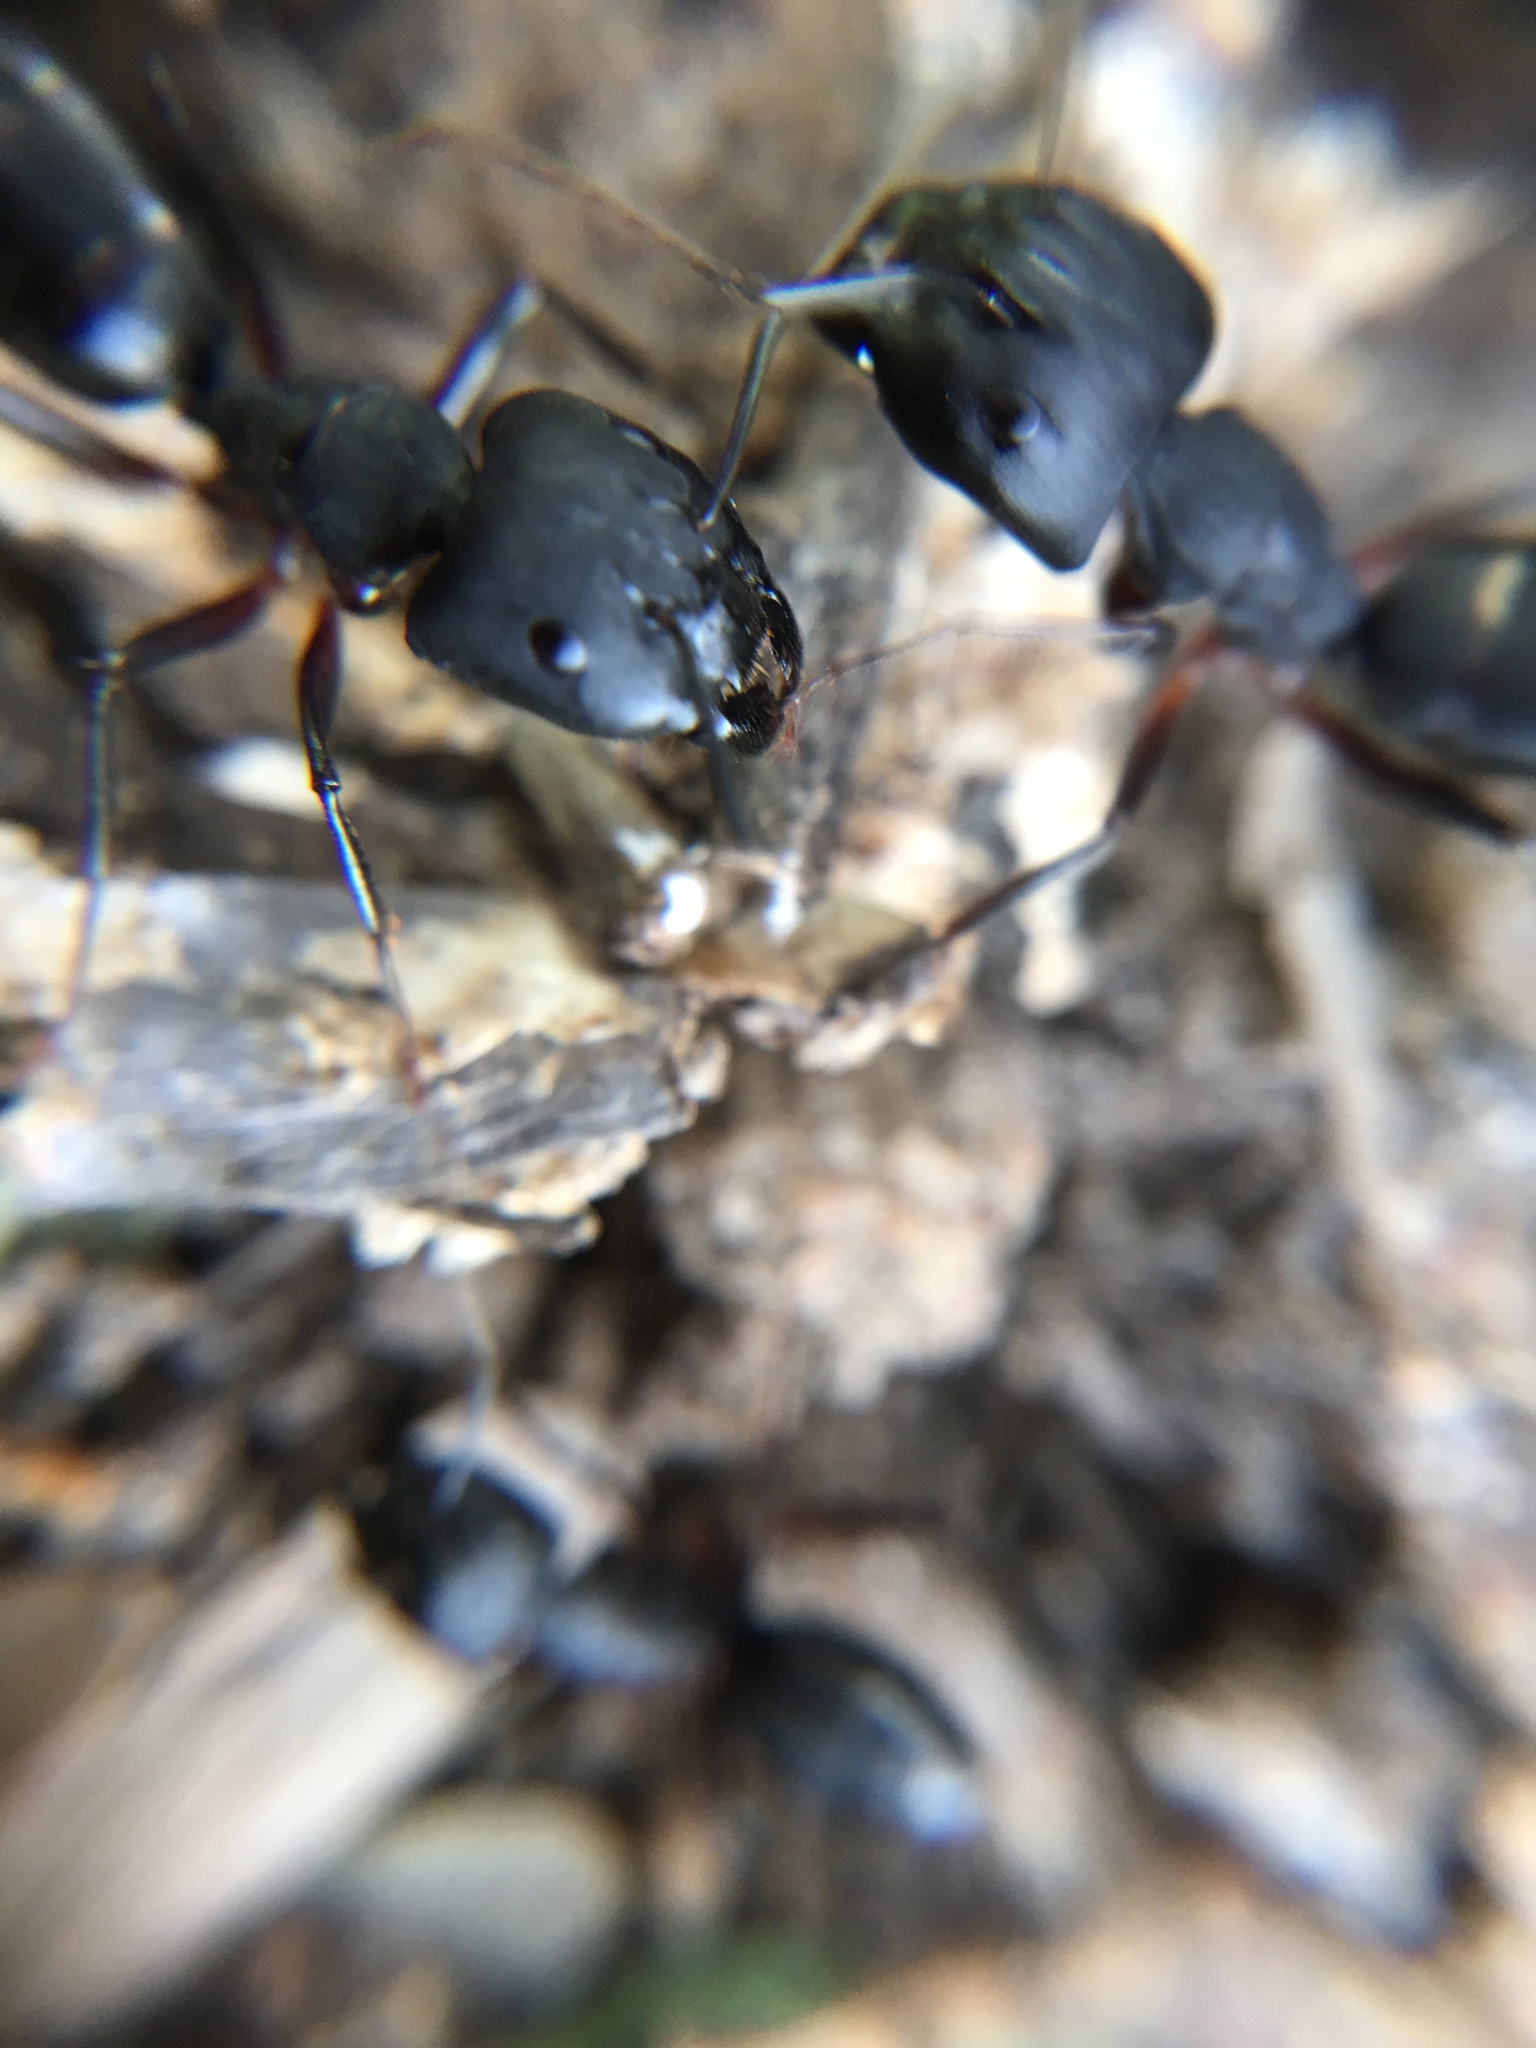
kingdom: Animalia
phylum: Arthropoda
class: Insecta
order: Hymenoptera
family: Formicidae
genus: Camponotus
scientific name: Camponotus compressus
